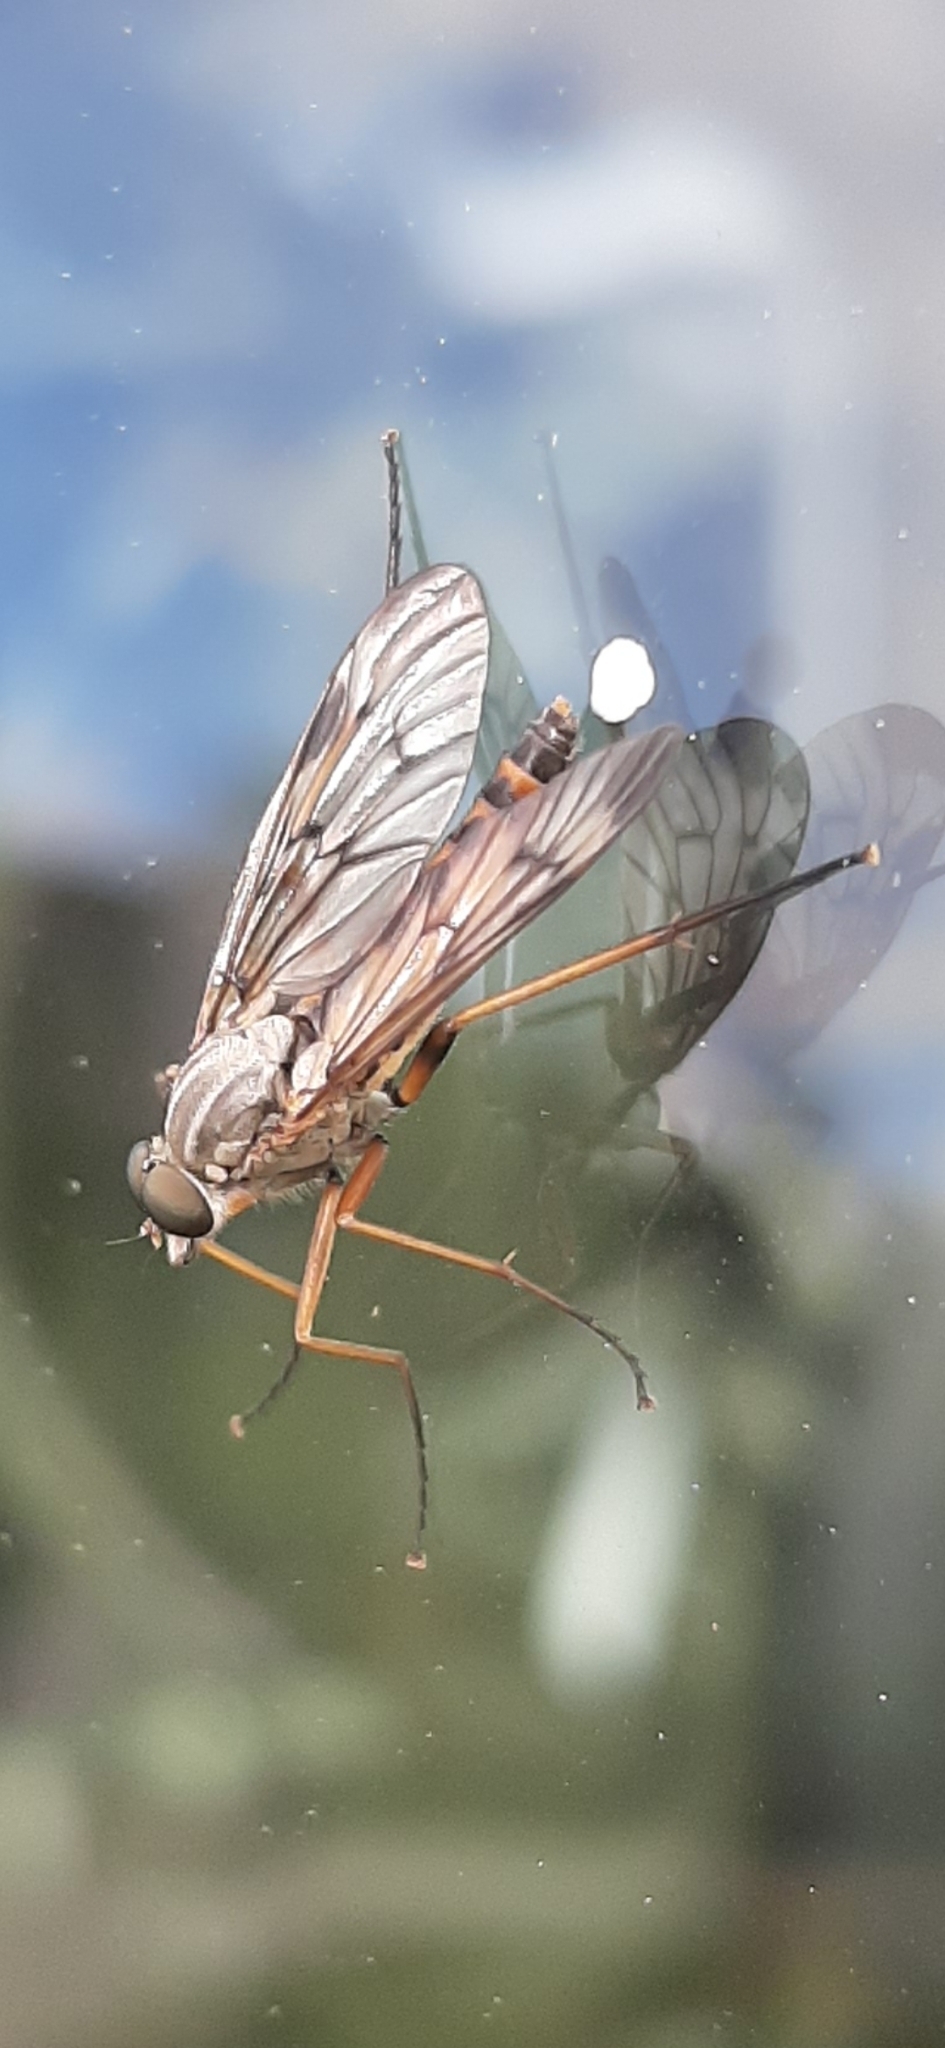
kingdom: Animalia
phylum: Arthropoda
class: Insecta
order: Diptera
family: Rhagionidae
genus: Rhagio
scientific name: Rhagio scolopacea
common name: Downlooker snipefly
